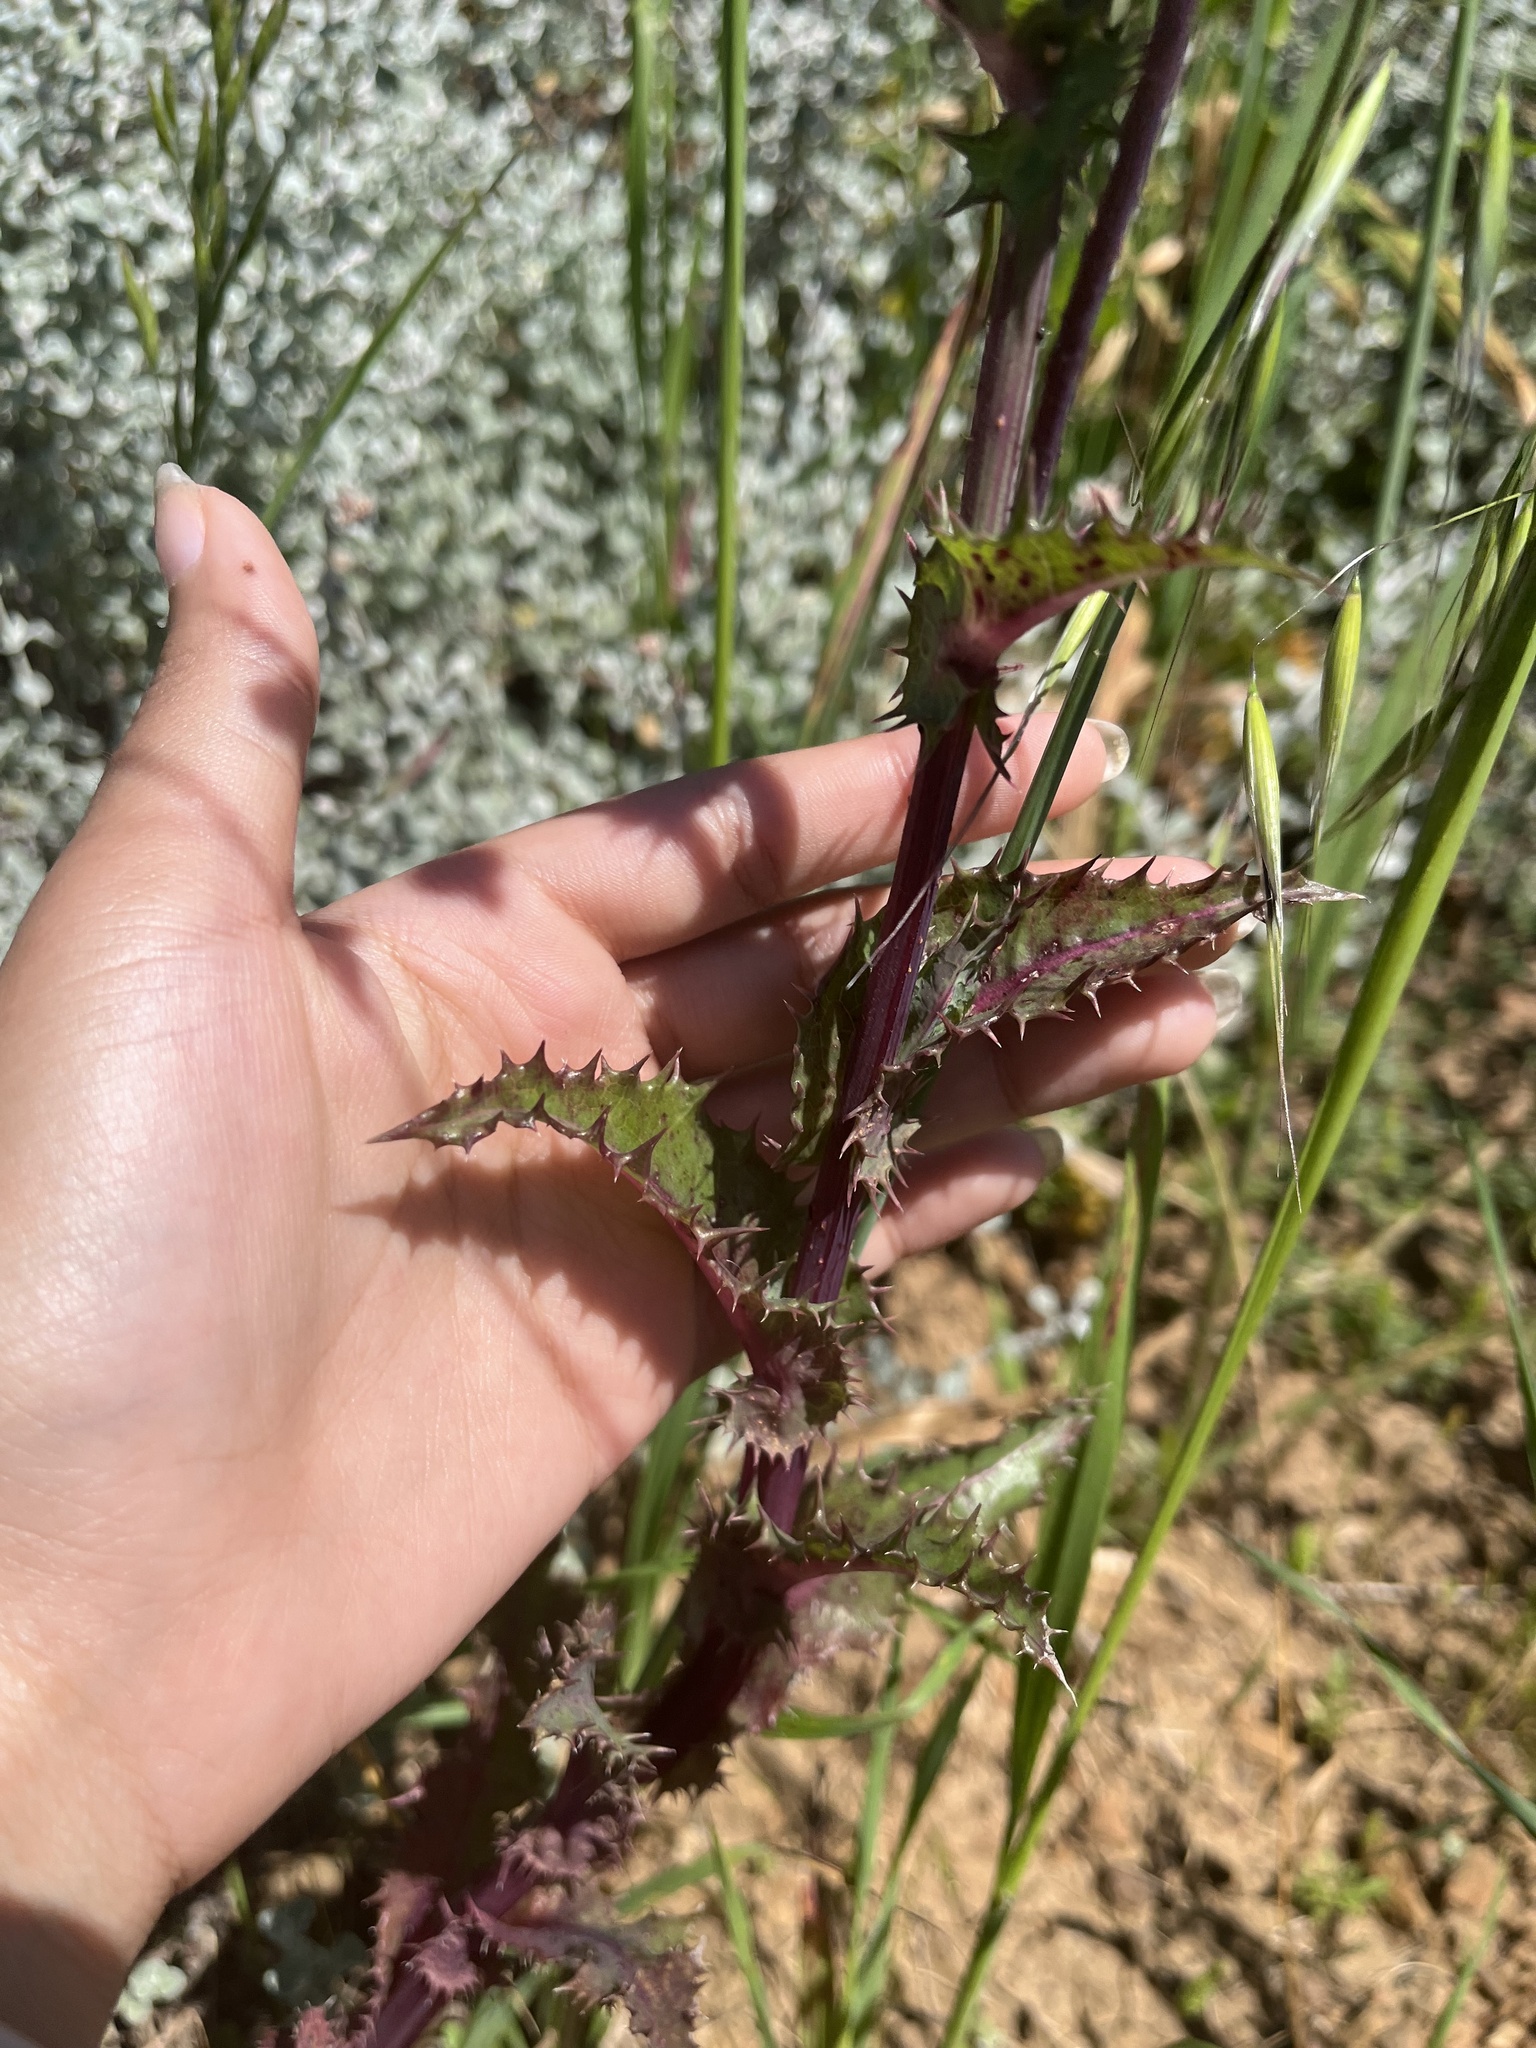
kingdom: Plantae
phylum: Tracheophyta
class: Magnoliopsida
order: Asterales
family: Asteraceae
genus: Sonchus
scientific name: Sonchus asper
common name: Prickly sow-thistle
